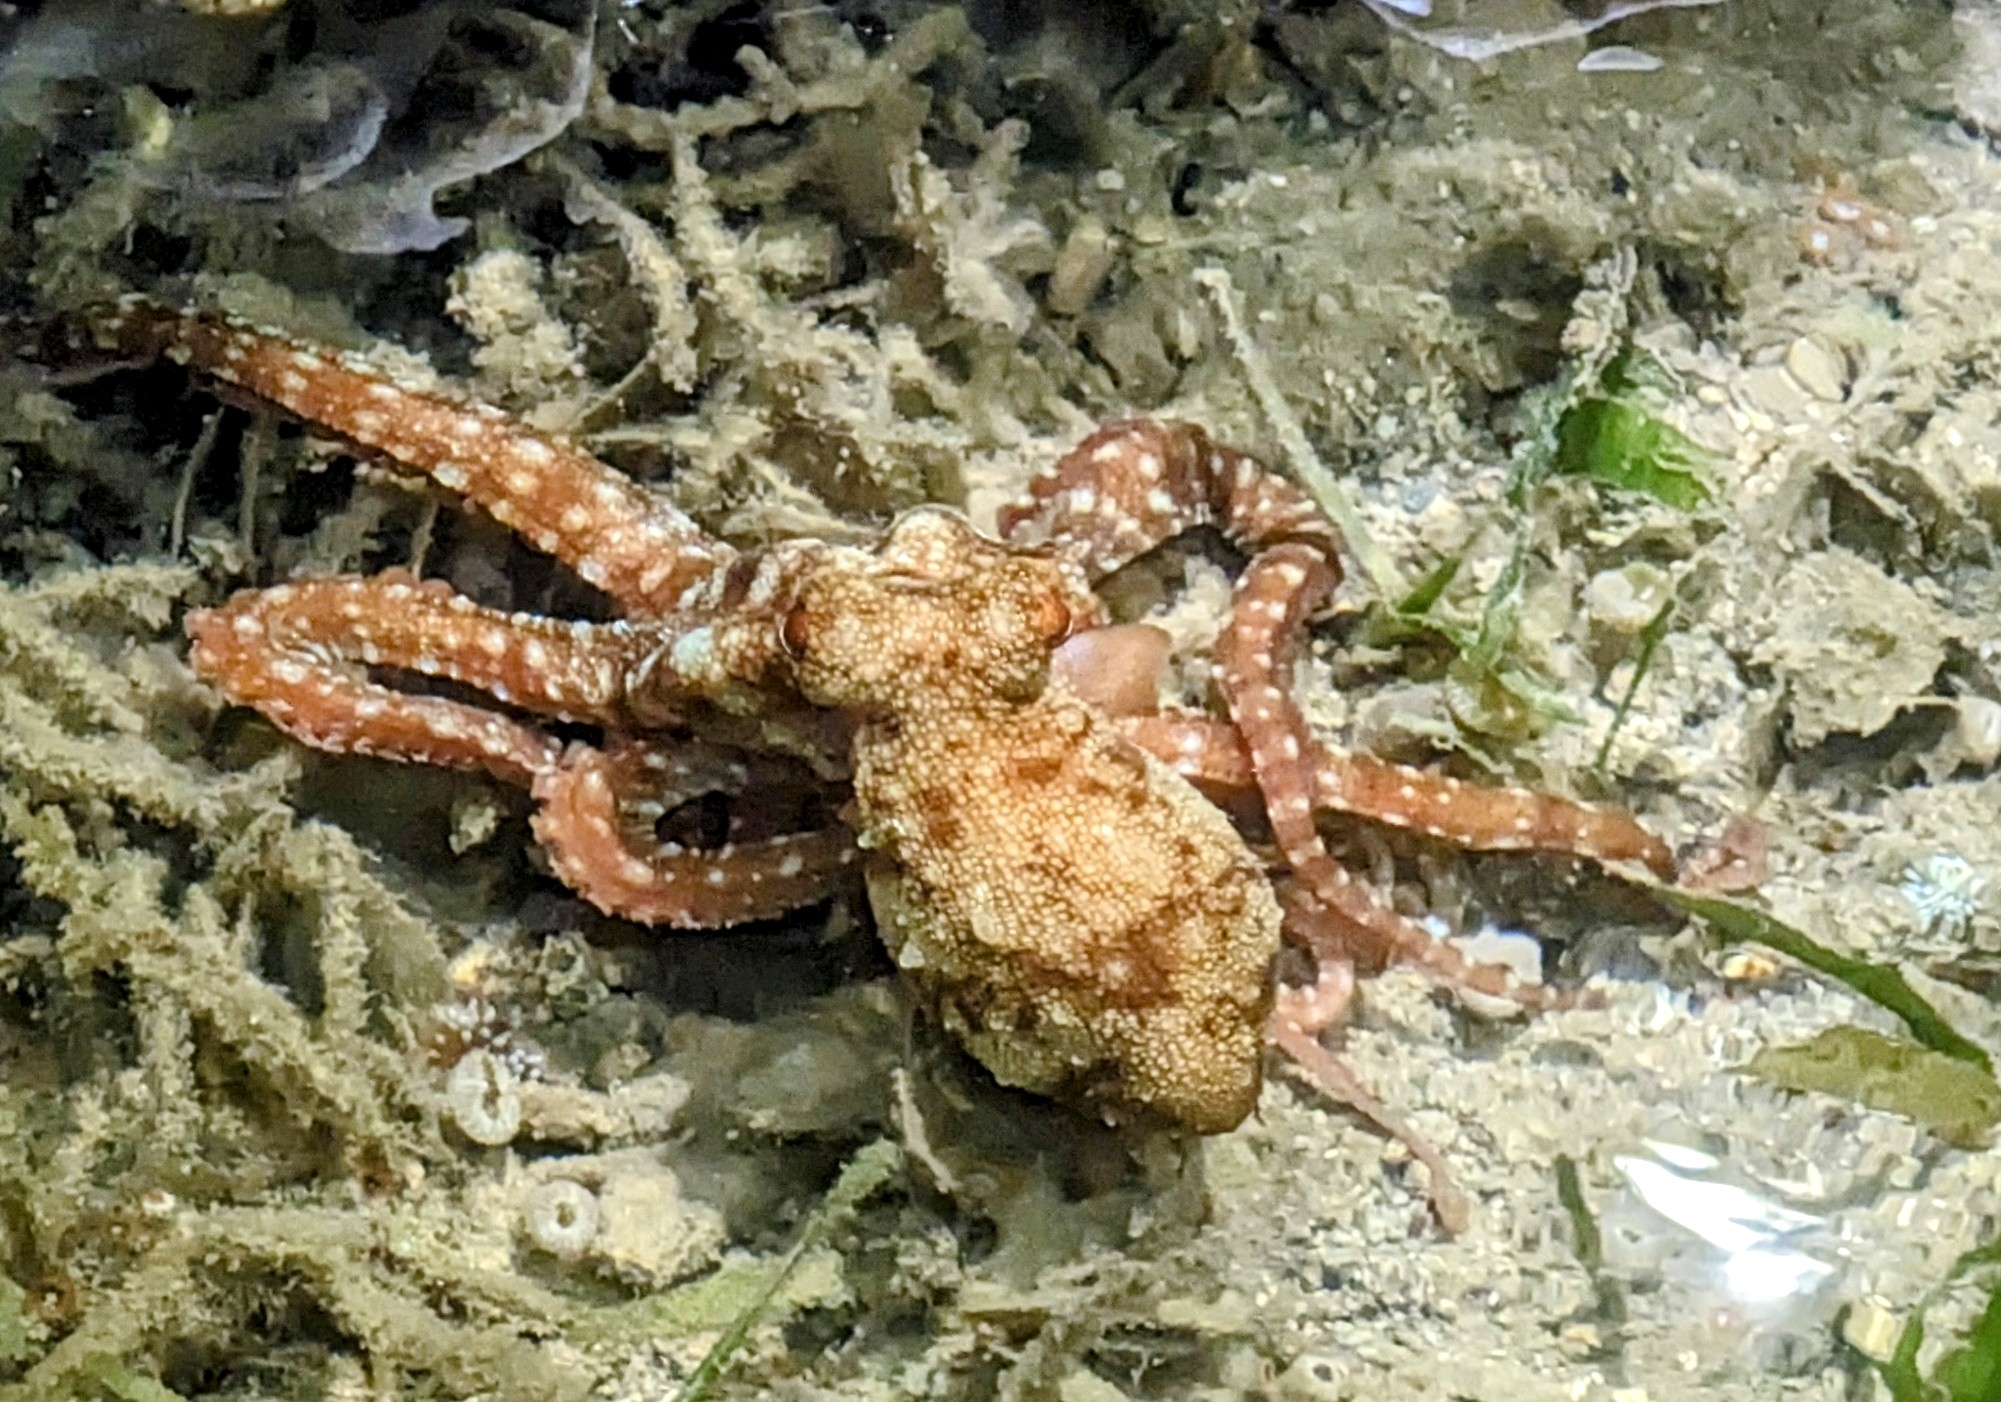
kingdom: Animalia
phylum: Mollusca
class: Cephalopoda
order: Octopoda
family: Octopodidae
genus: Callistoctopus
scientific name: Callistoctopus aspilosomatis
